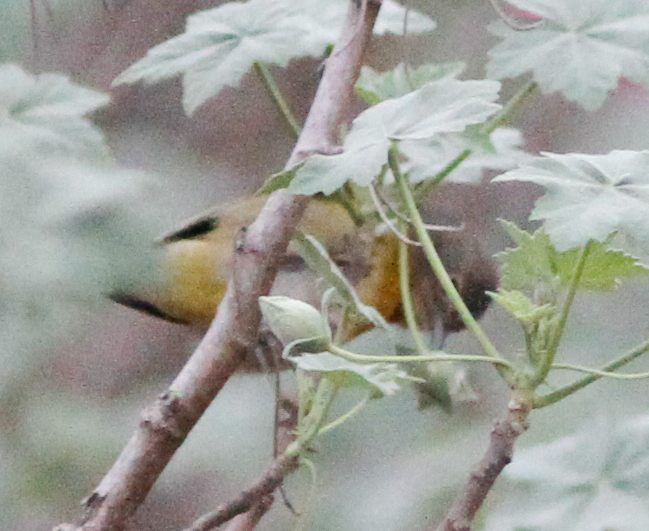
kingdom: Animalia
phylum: Chordata
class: Aves
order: Passeriformes
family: Parulidae
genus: Leiothlypis
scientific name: Leiothlypis ruficapilla
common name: Nashville warbler
